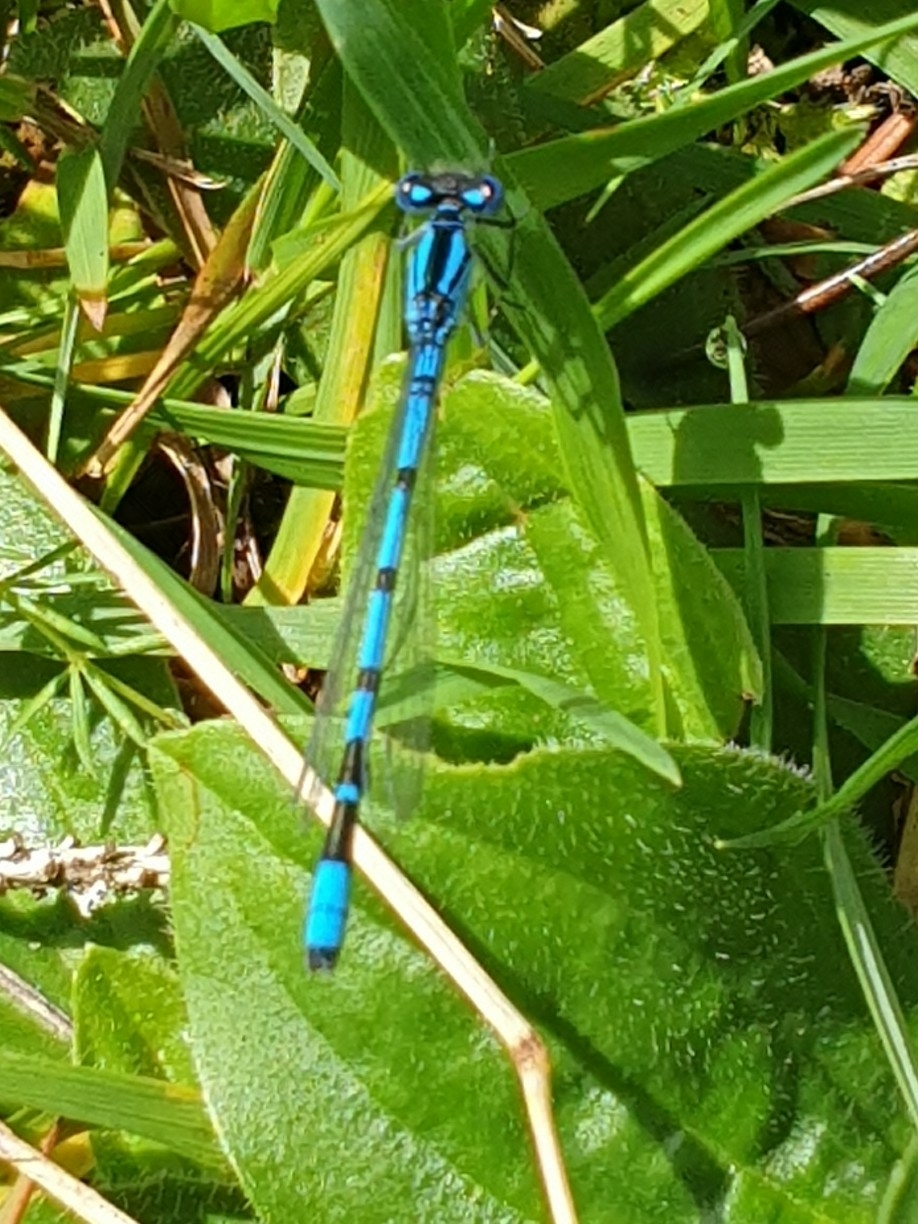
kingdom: Animalia
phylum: Arthropoda
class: Insecta
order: Odonata
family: Coenagrionidae
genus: Enallagma
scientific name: Enallagma cyathigerum
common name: Common blue damselfly
